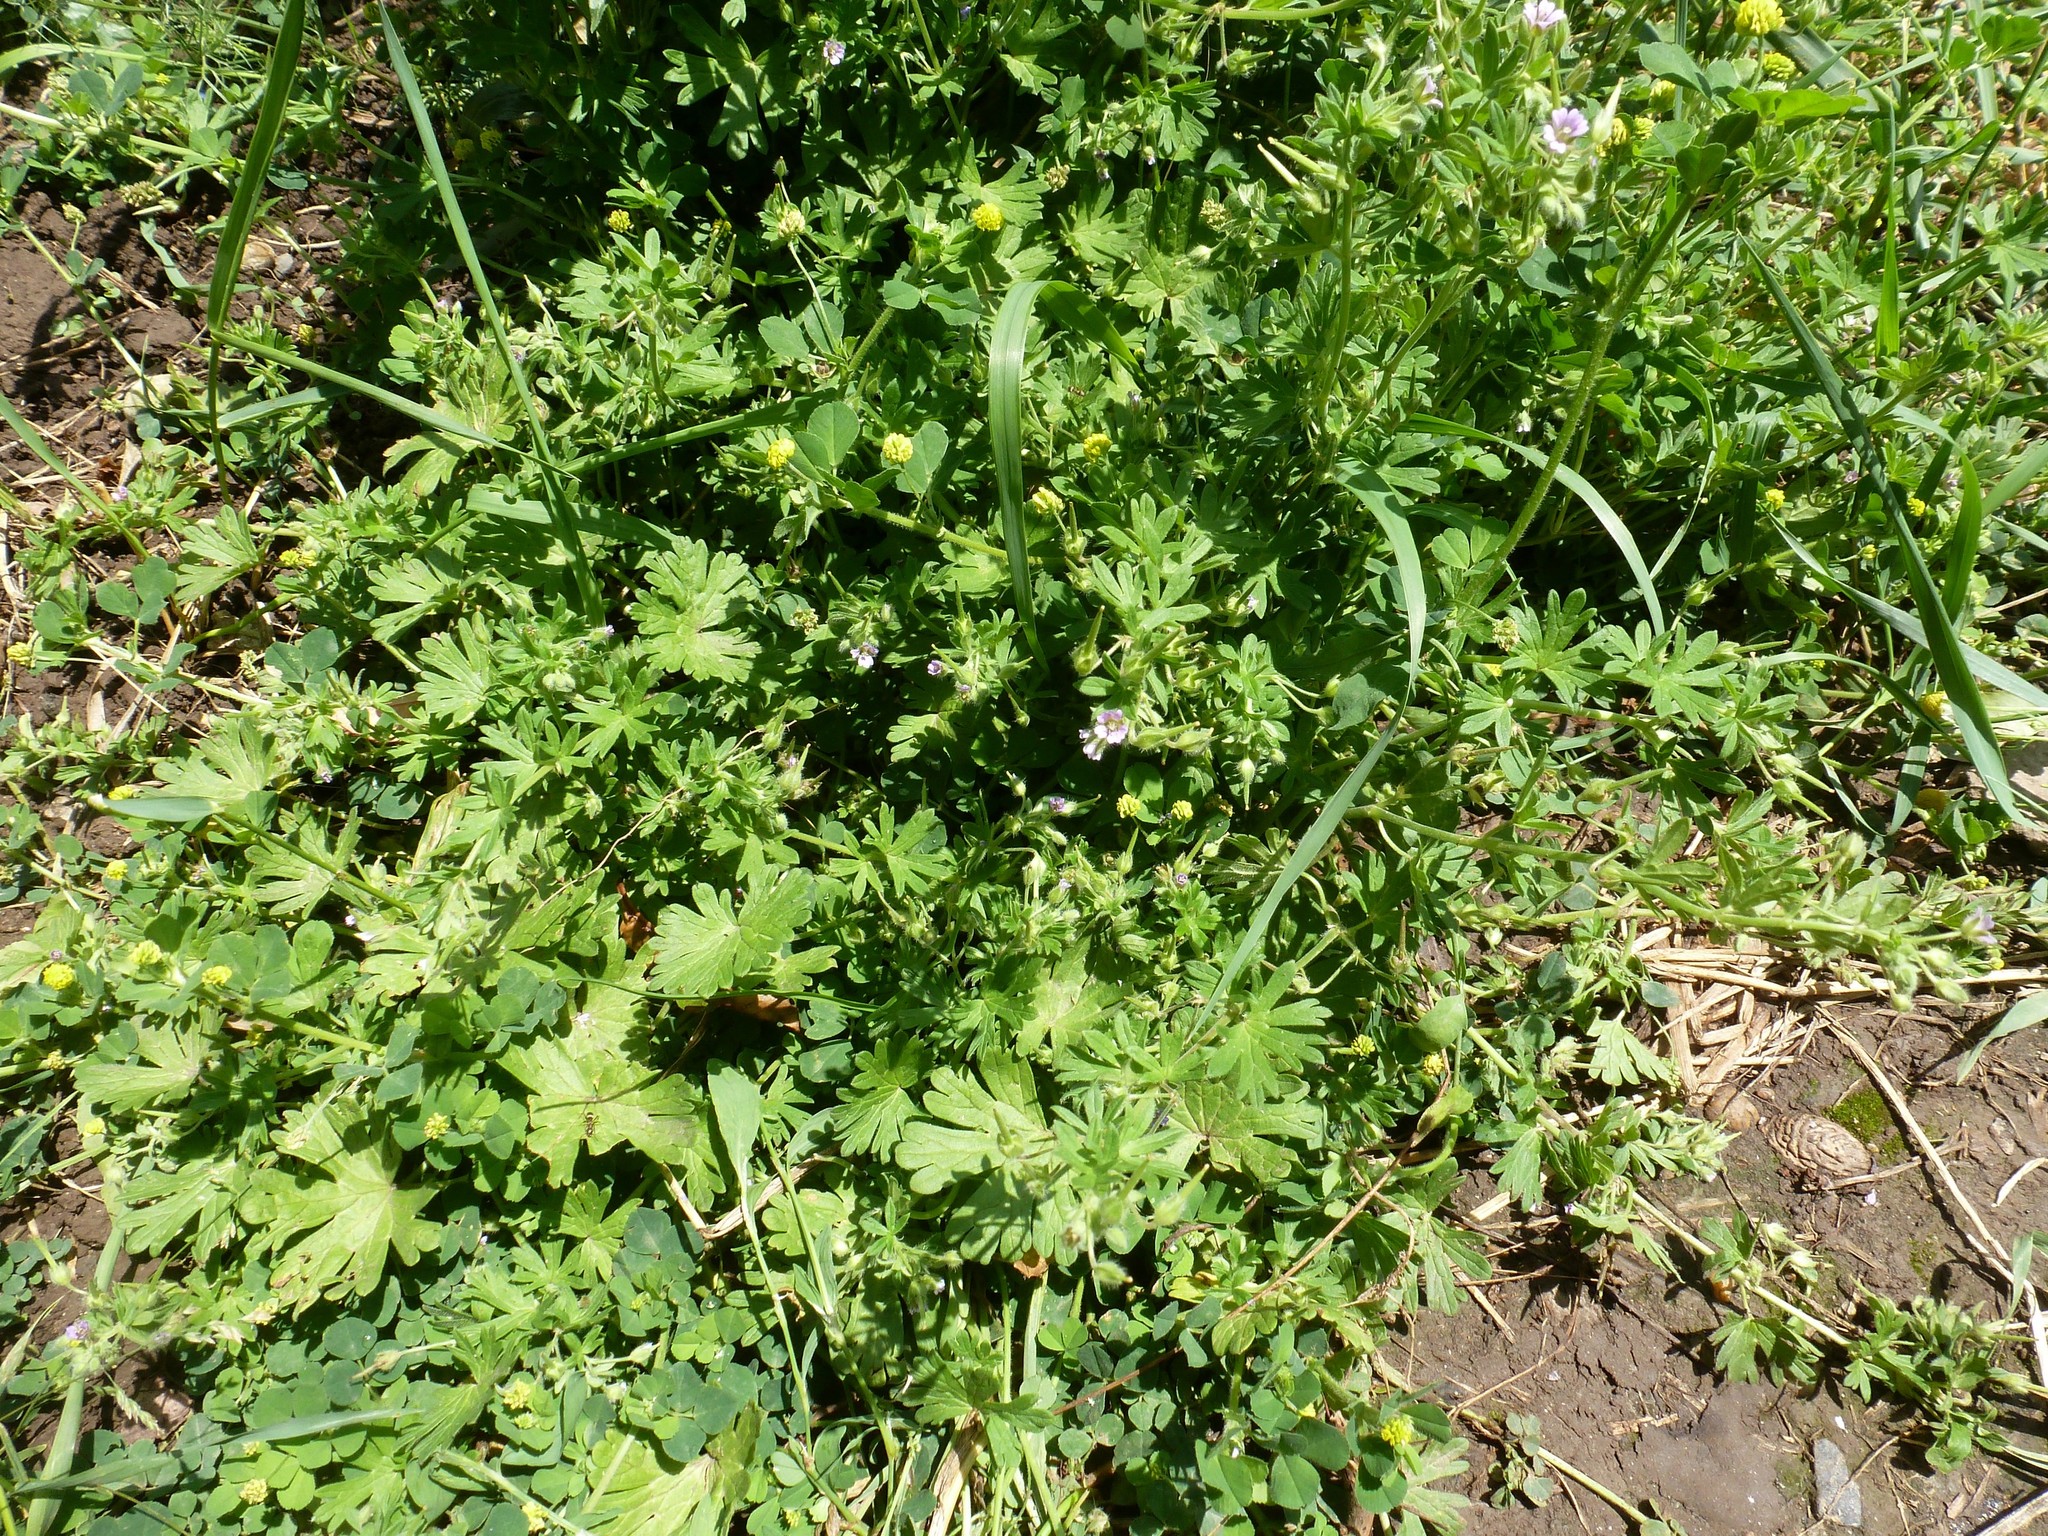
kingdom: Plantae
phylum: Tracheophyta
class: Magnoliopsida
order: Geraniales
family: Geraniaceae
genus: Geranium
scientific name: Geranium pusillum
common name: Small geranium
